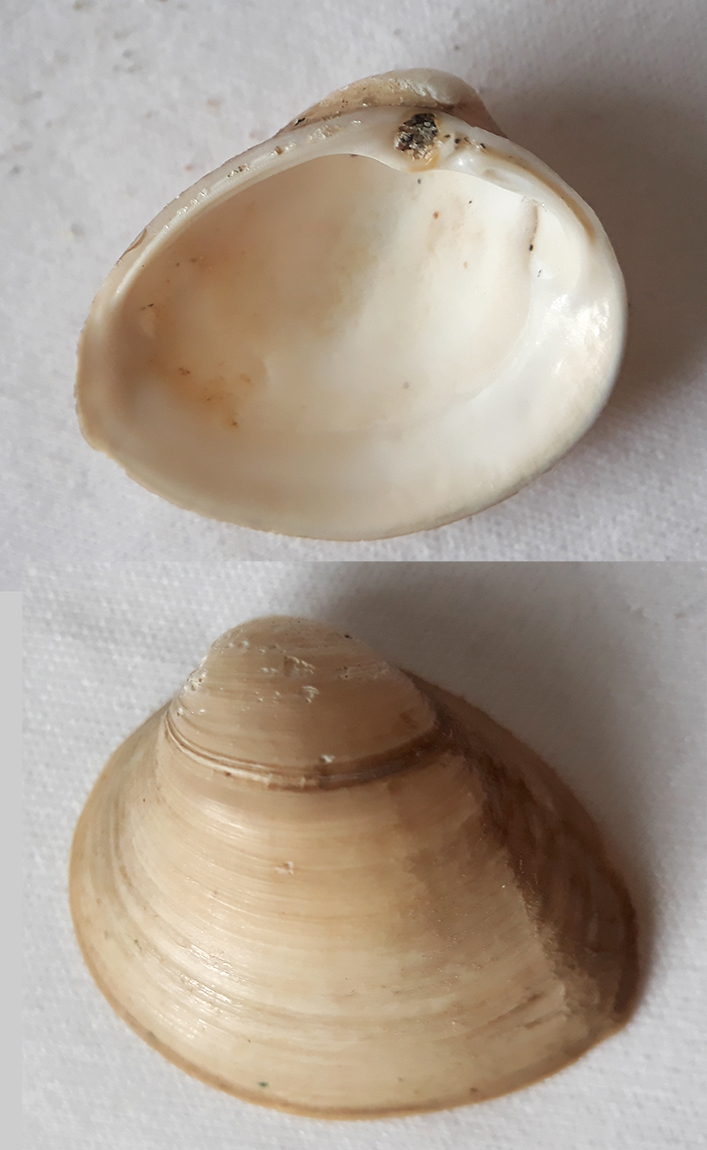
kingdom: Animalia
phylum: Mollusca
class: Bivalvia
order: Venerida
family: Mactridae
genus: Rangia
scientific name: Rangia cuneata
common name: Atlantic rangia
